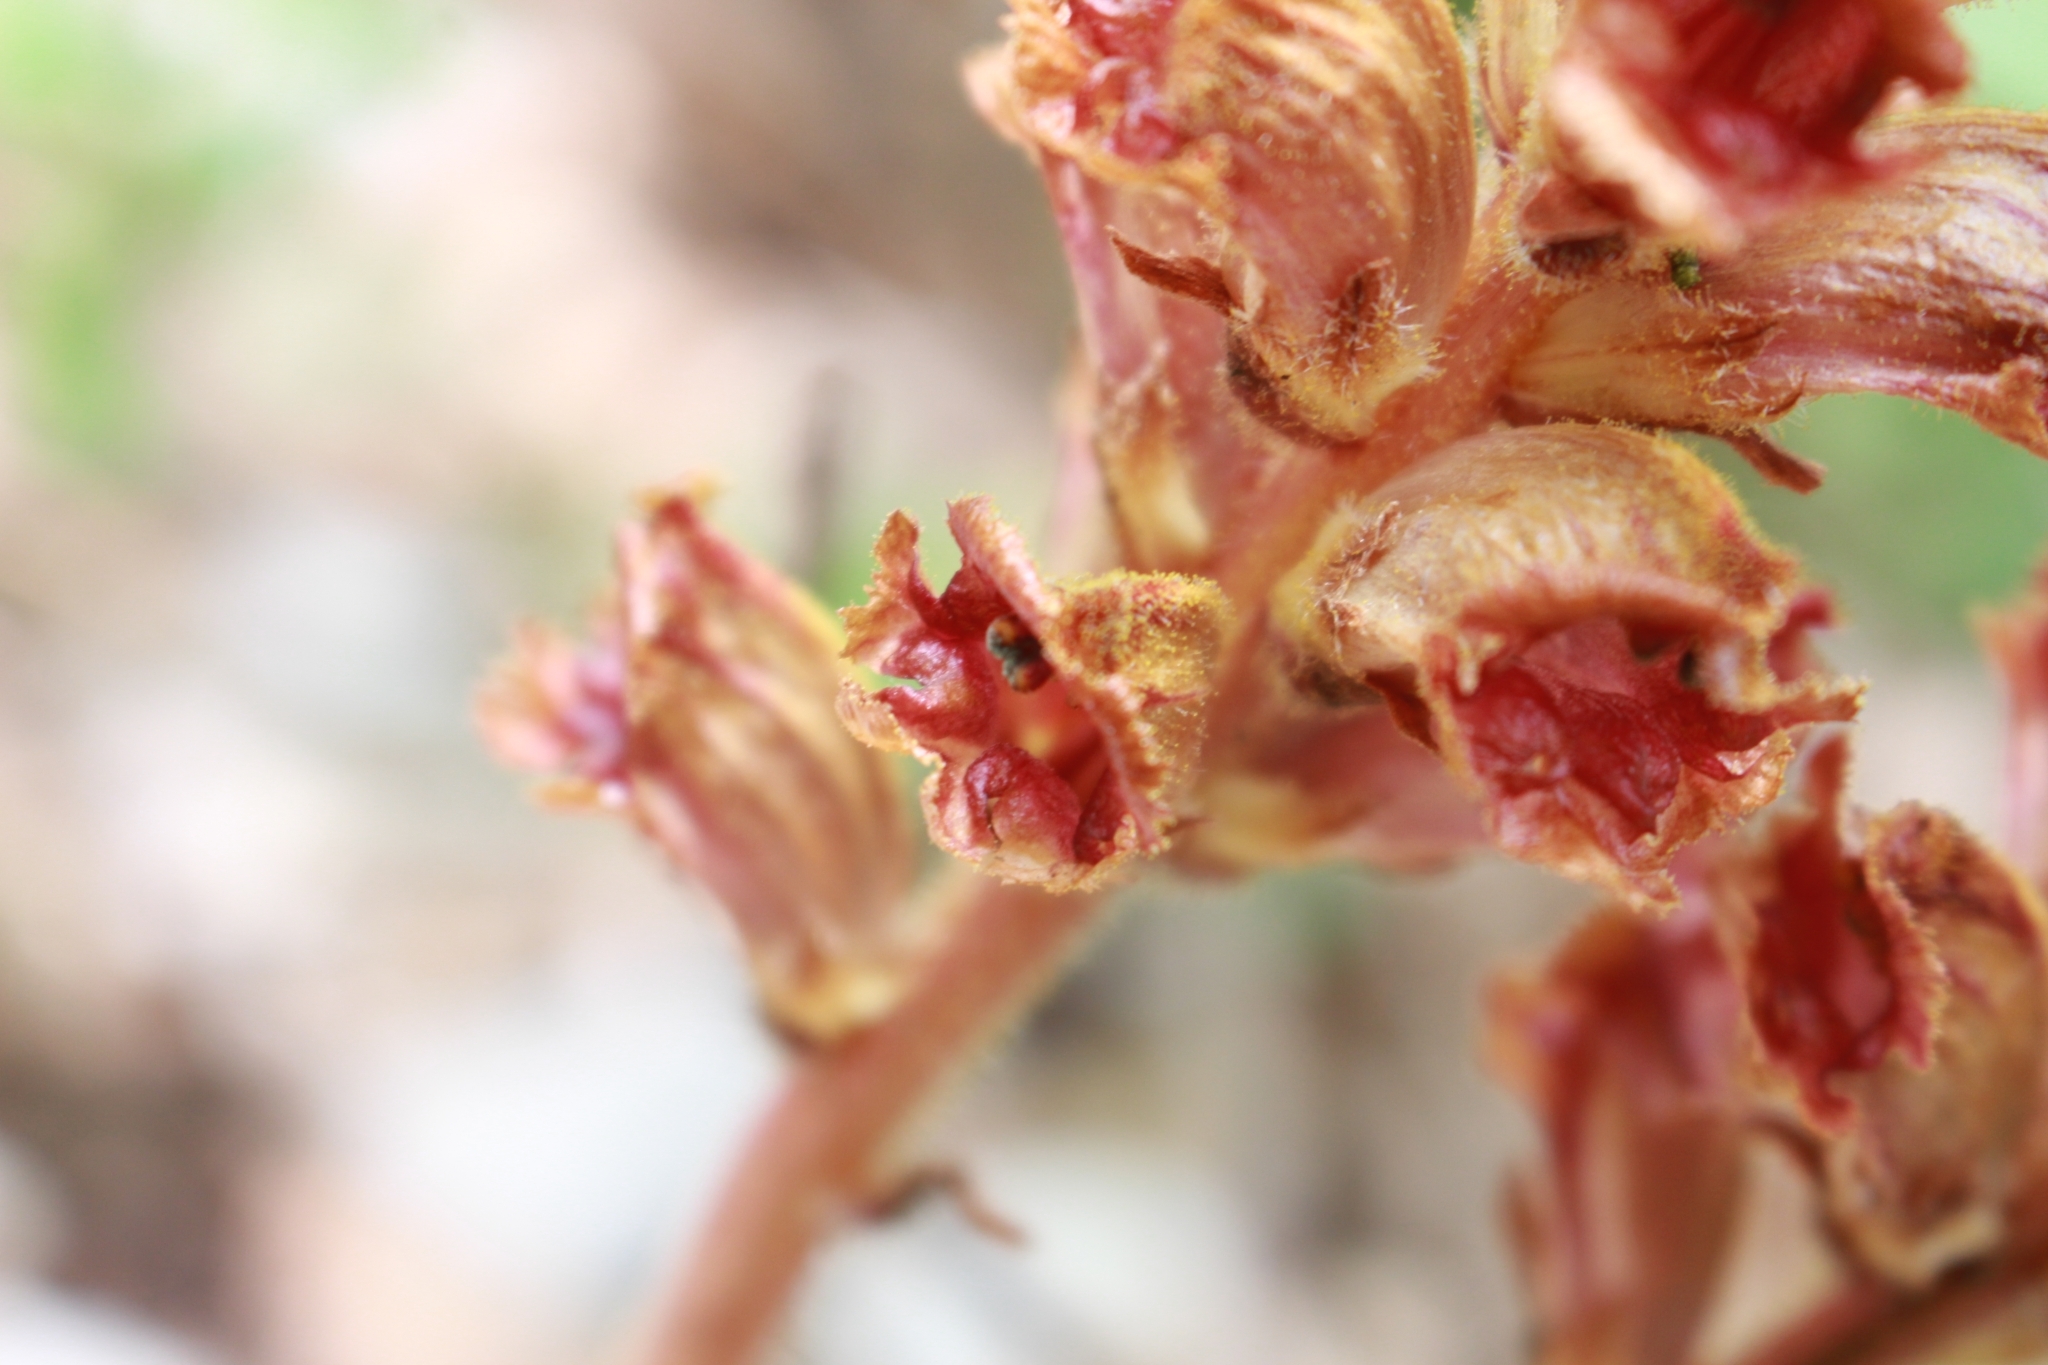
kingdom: Plantae
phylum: Tracheophyta
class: Magnoliopsida
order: Lamiales
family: Orobanchaceae
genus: Orobanche
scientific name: Orobanche gracilis
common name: Slender broomrape
